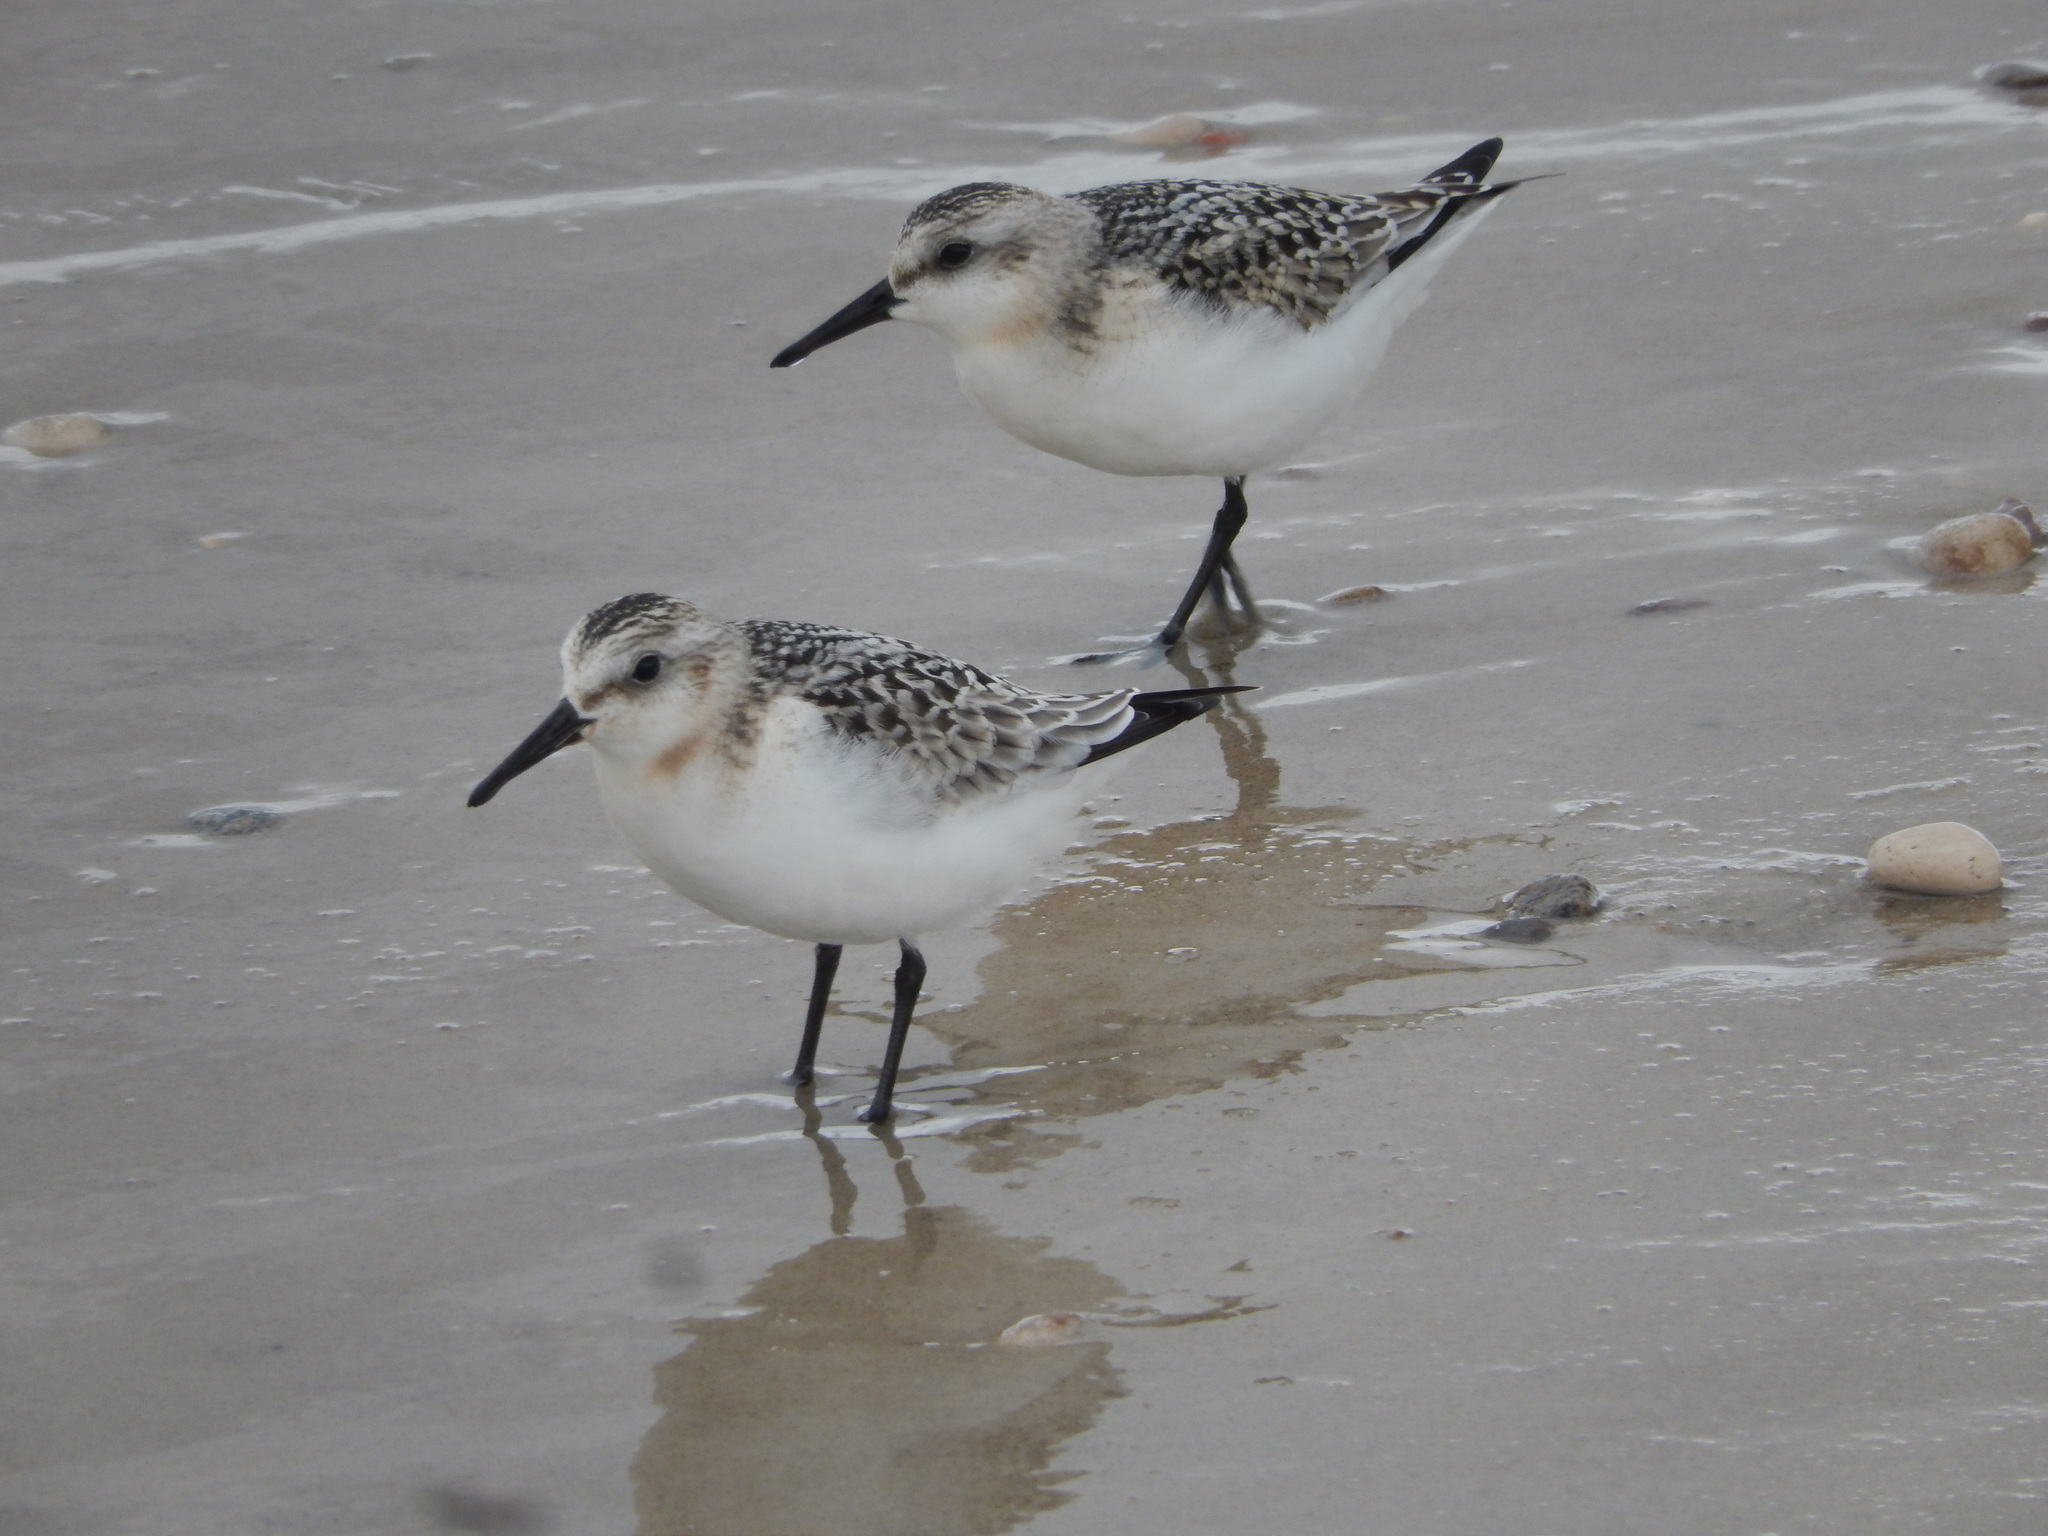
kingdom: Animalia
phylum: Chordata
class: Aves
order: Charadriiformes
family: Scolopacidae
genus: Calidris
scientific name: Calidris alba
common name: Sanderling
